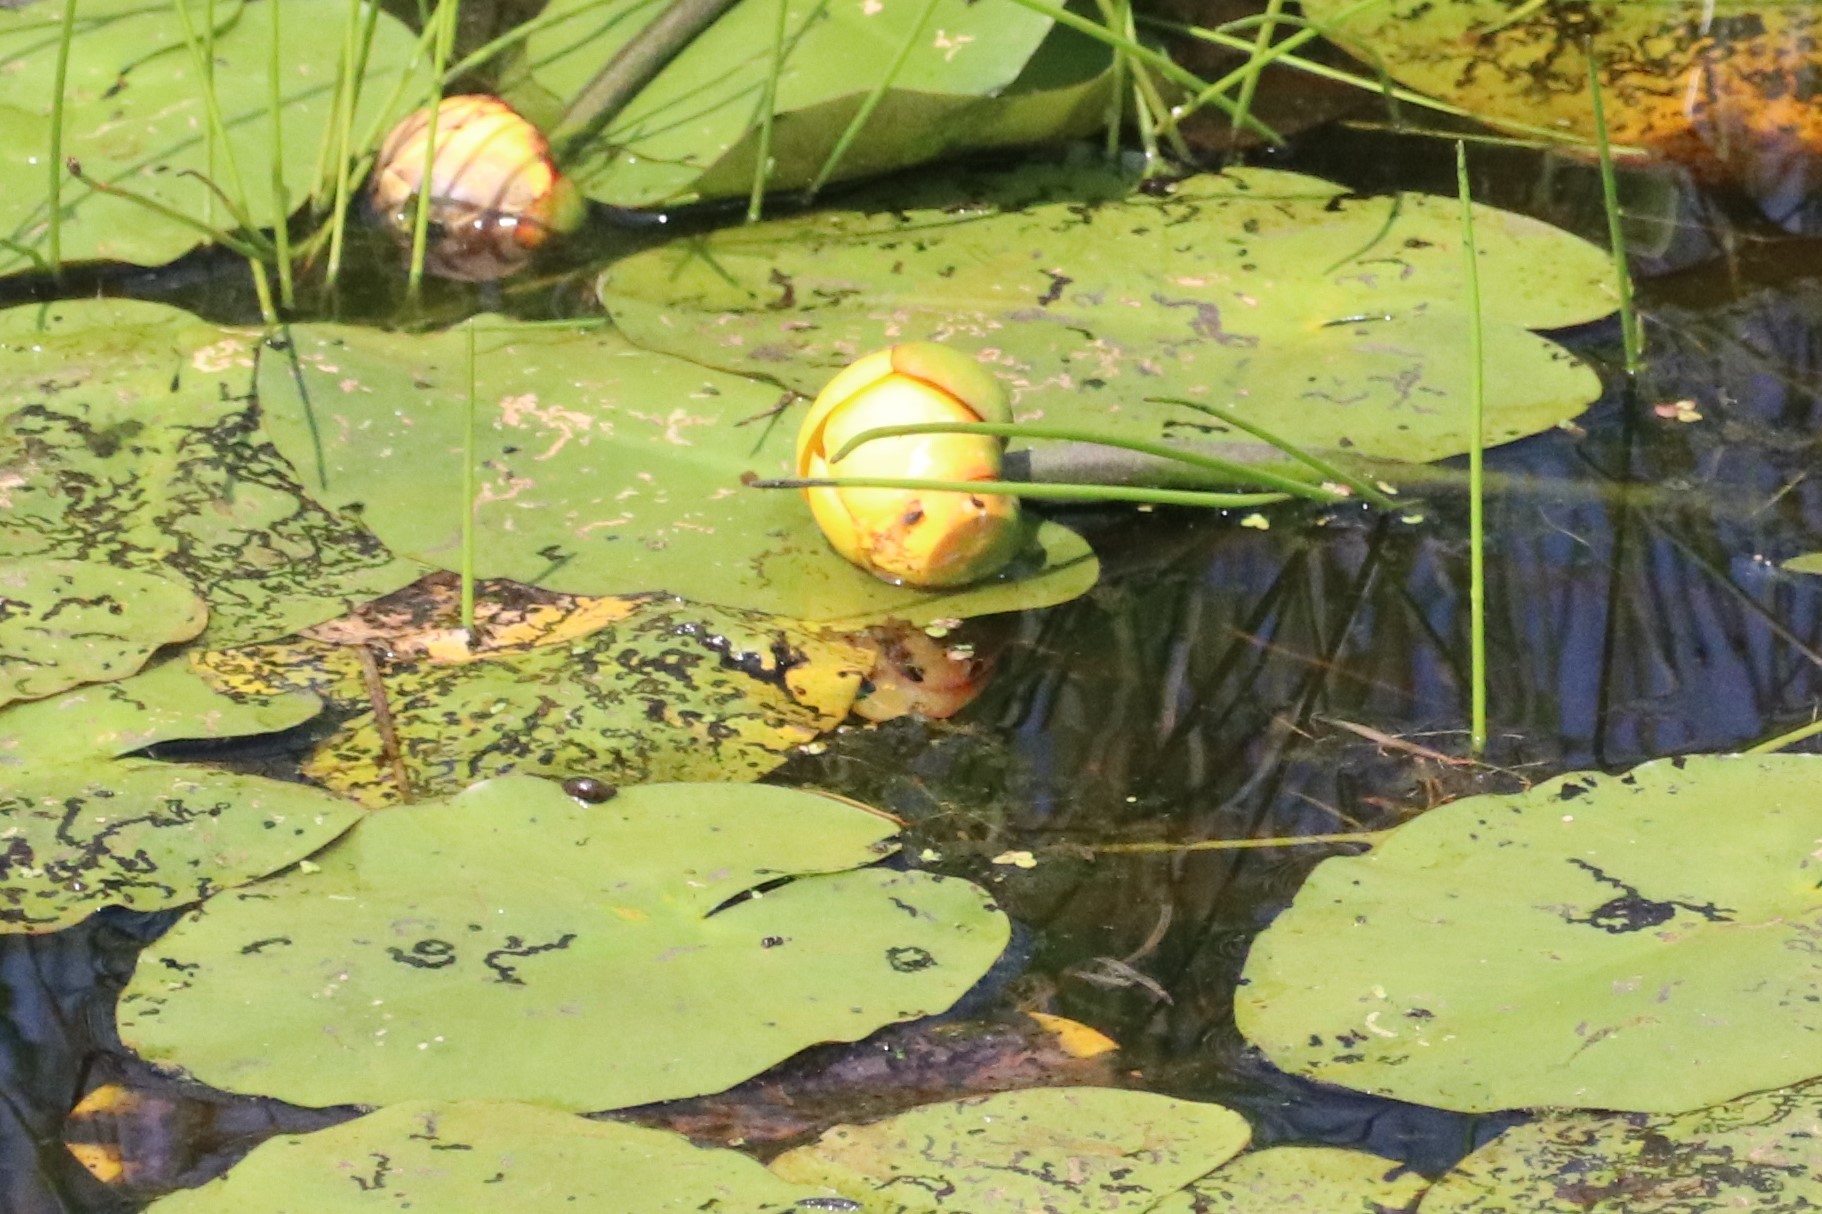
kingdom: Plantae
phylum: Tracheophyta
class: Magnoliopsida
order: Nymphaeales
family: Nymphaeaceae
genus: Nuphar
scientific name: Nuphar variegata
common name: Beaver-root
